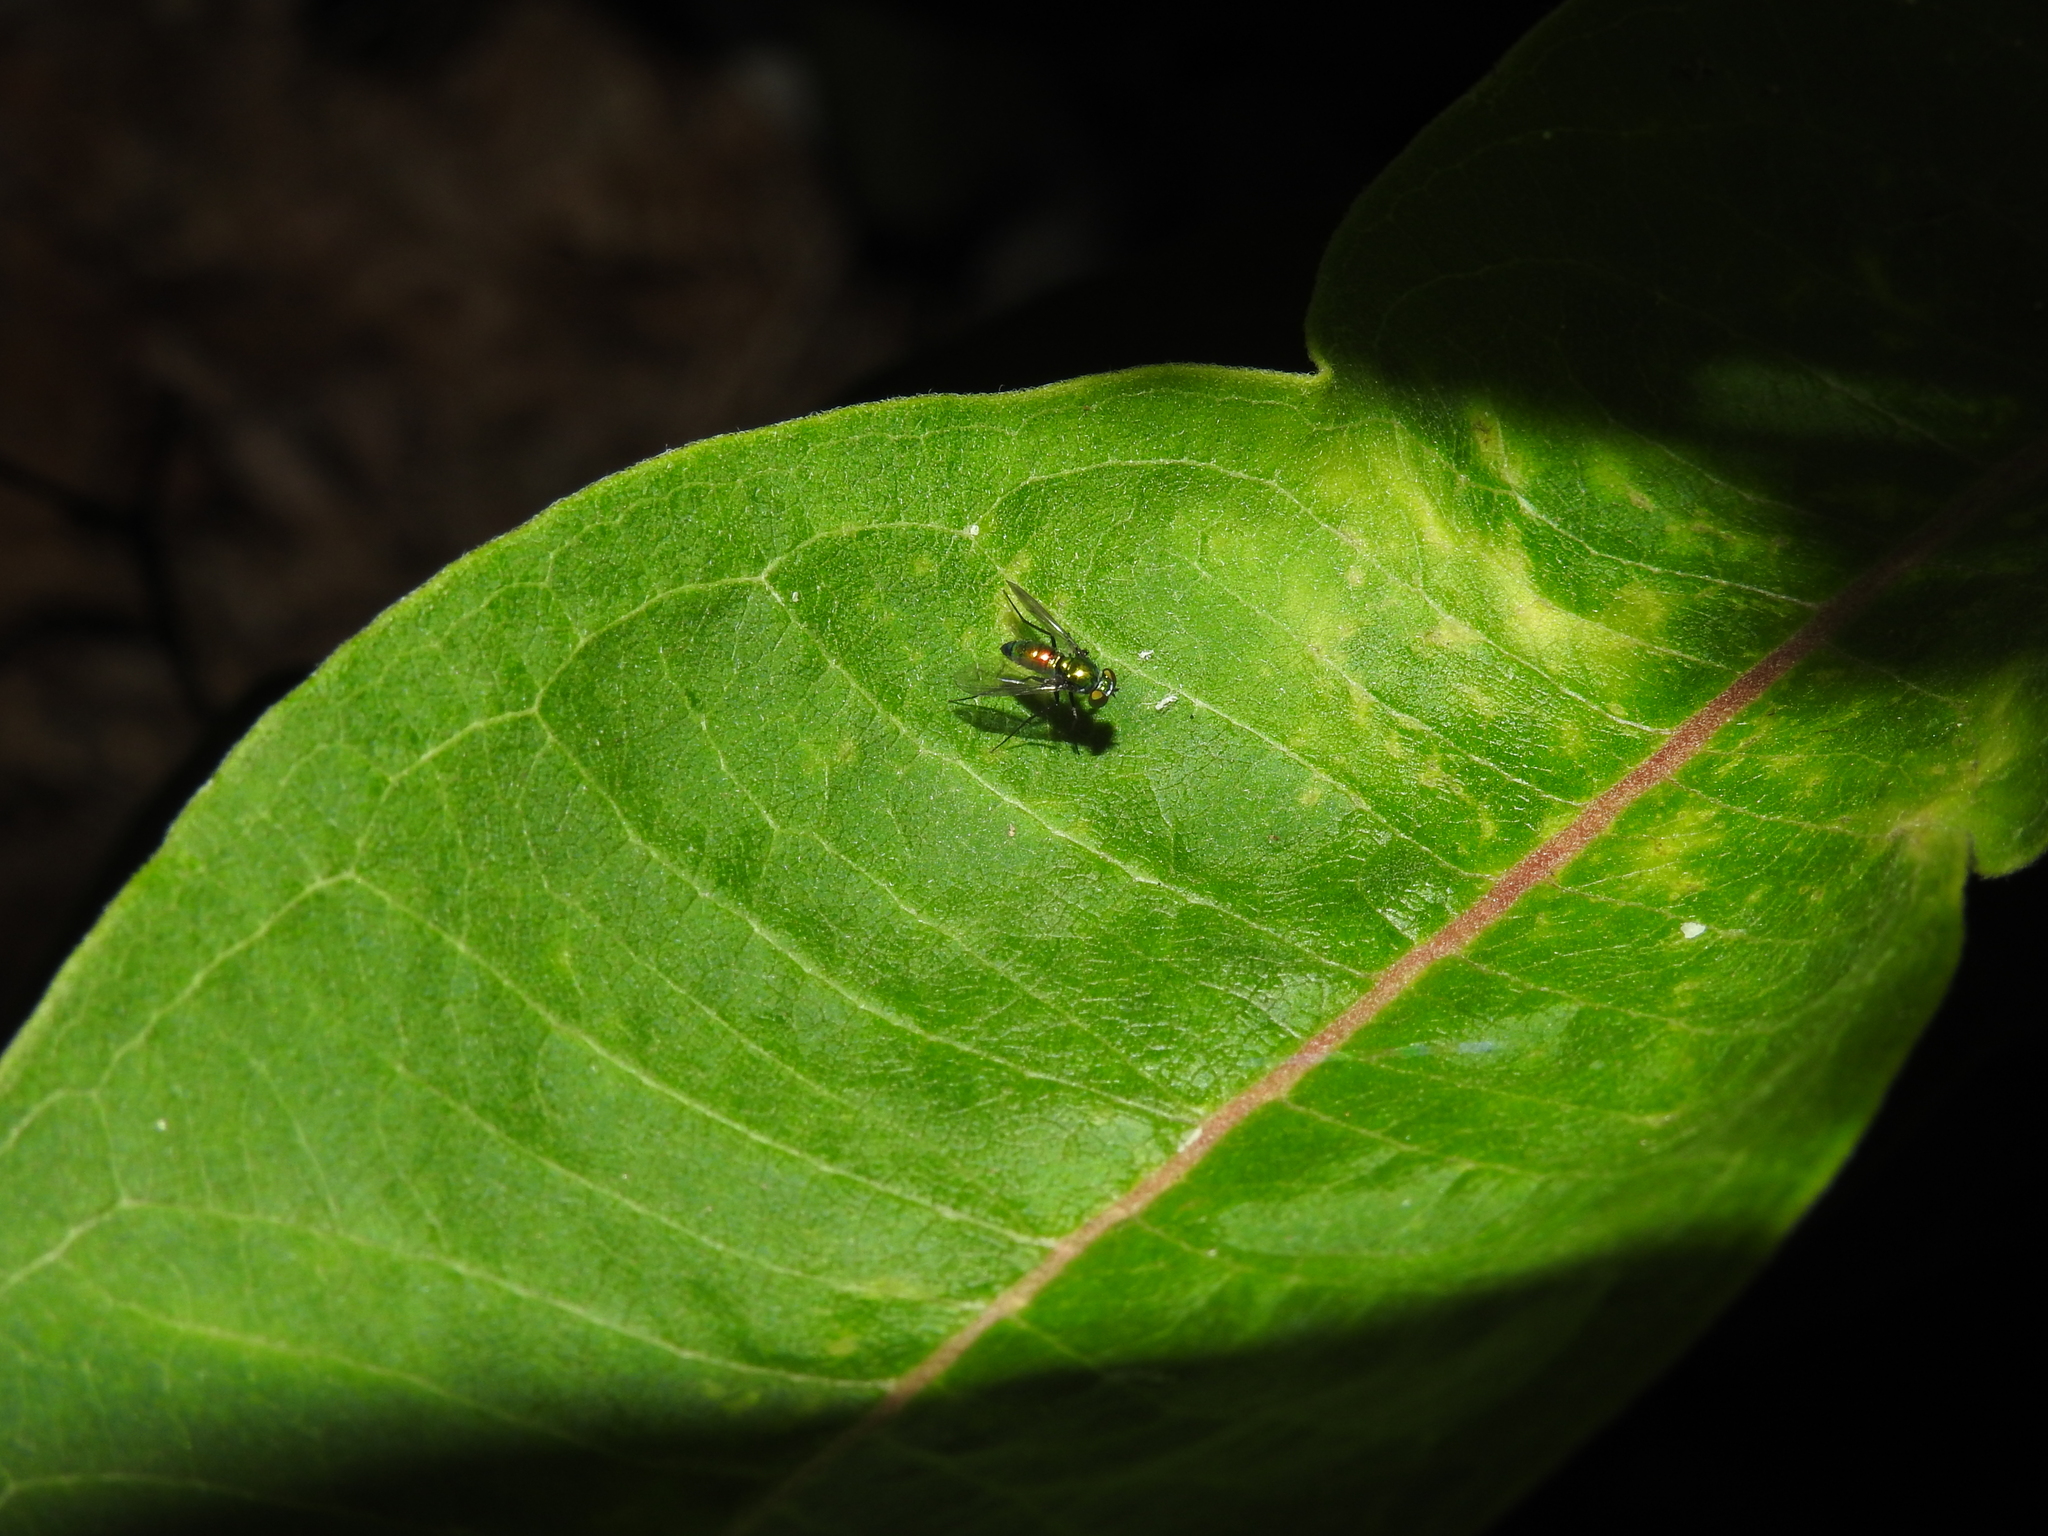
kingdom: Animalia
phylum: Arthropoda
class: Insecta
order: Diptera
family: Dolichopodidae
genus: Condylostylus
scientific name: Condylostylus patibulatus
